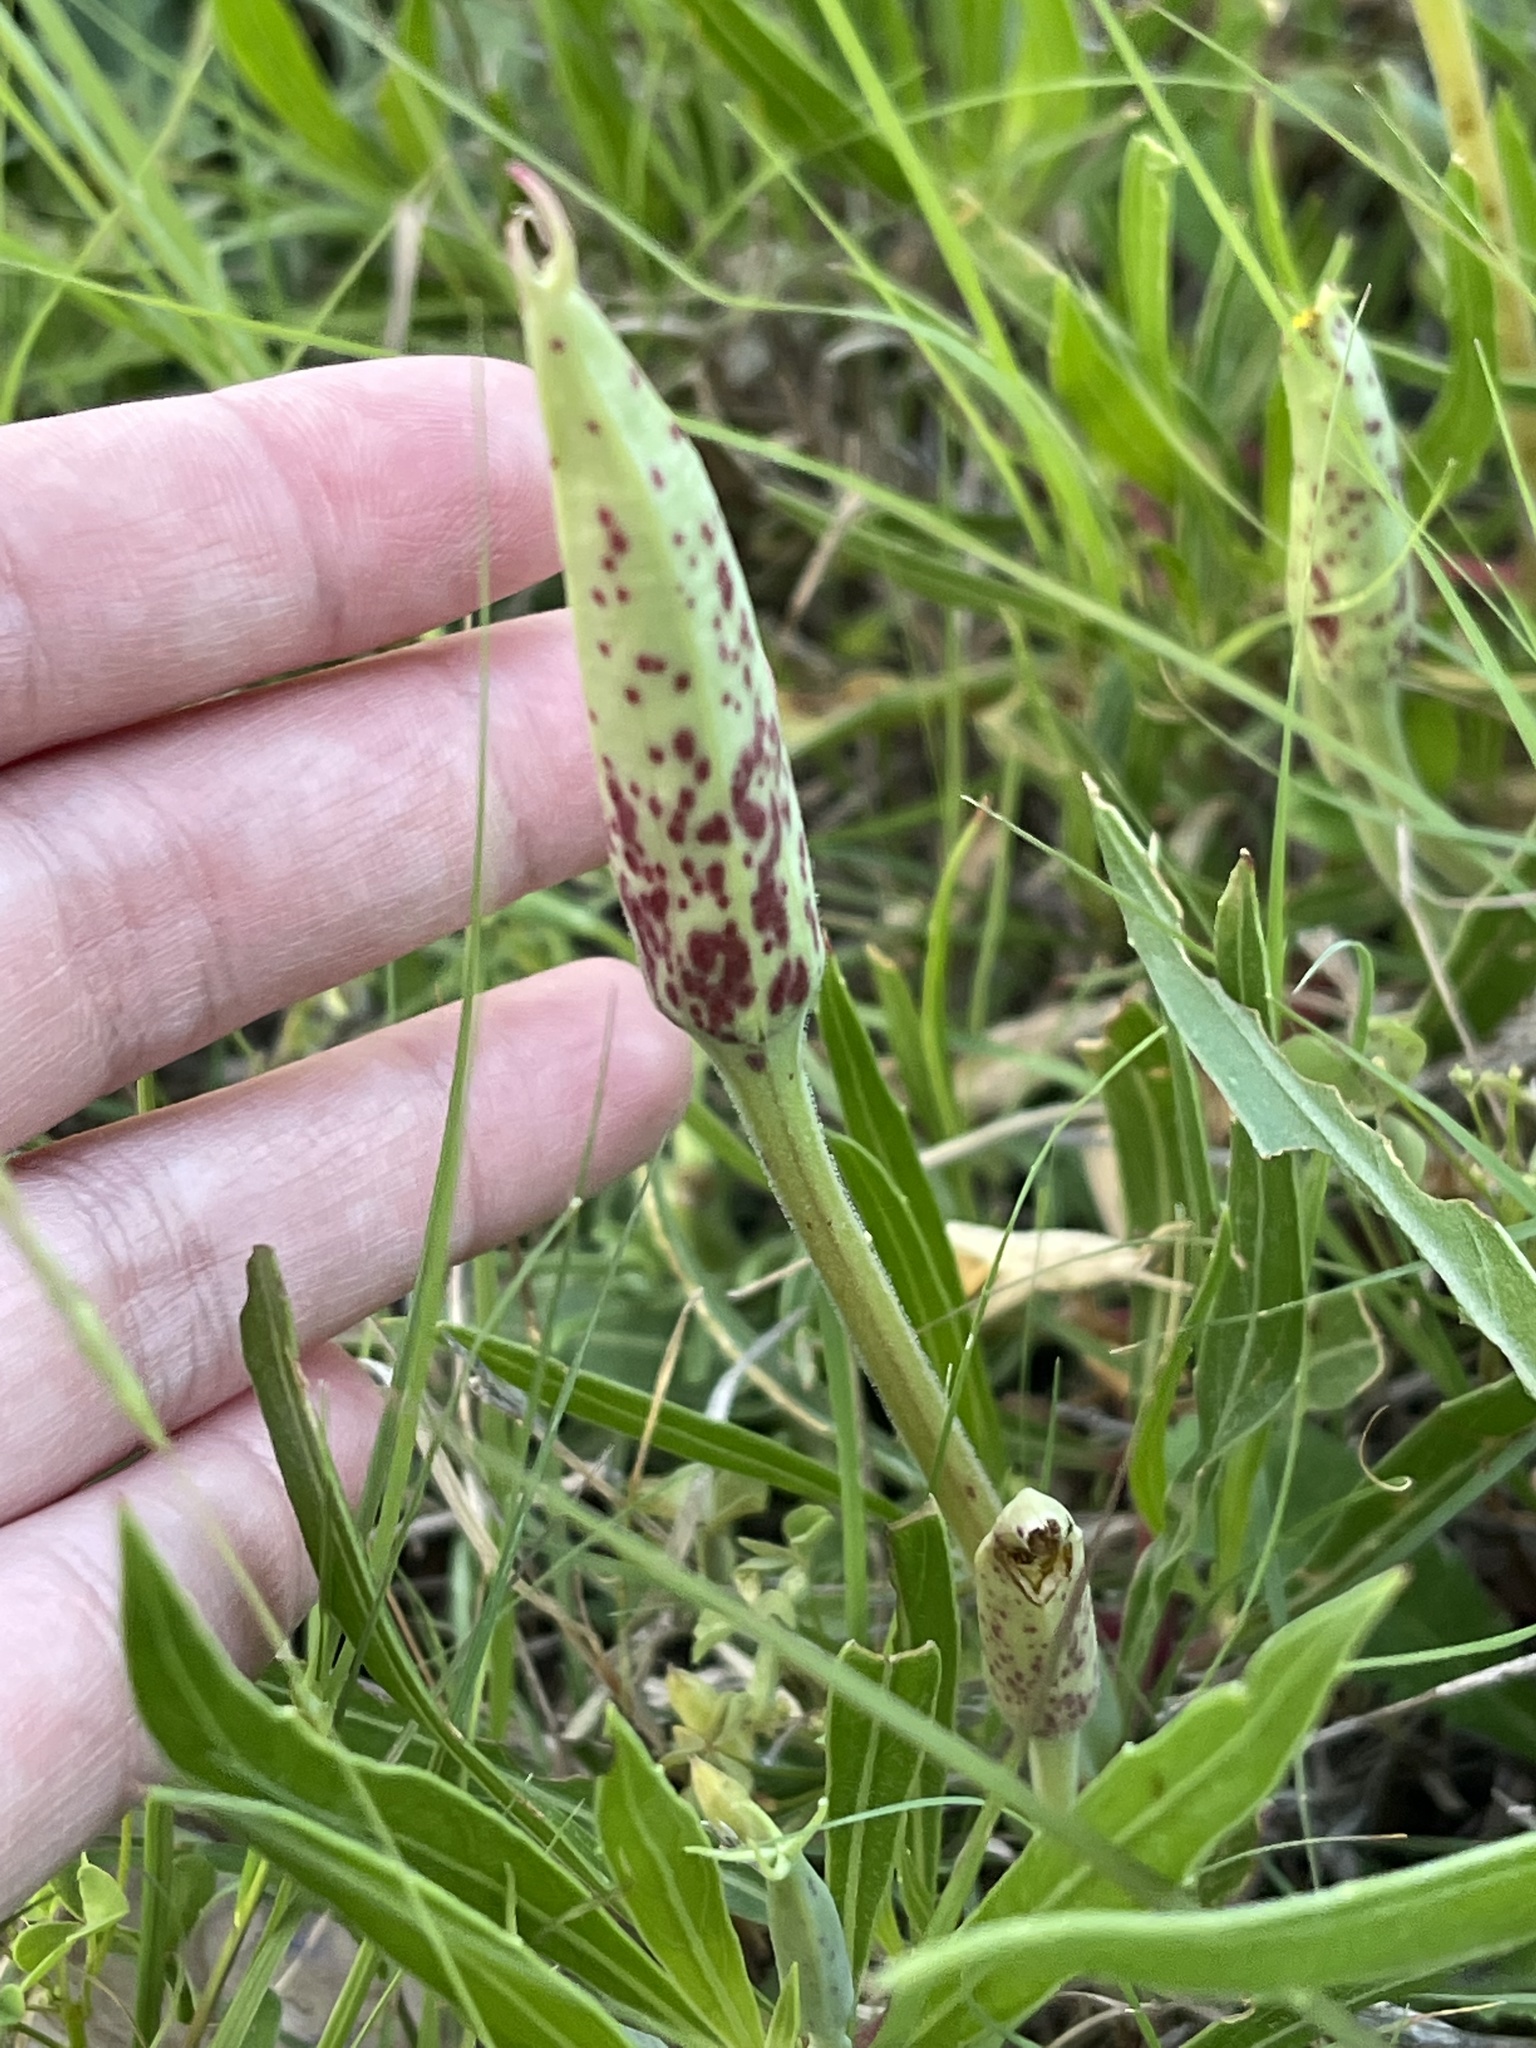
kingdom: Plantae
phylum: Tracheophyta
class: Magnoliopsida
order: Myrtales
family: Onagraceae
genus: Oenothera
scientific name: Oenothera macrocarpa
